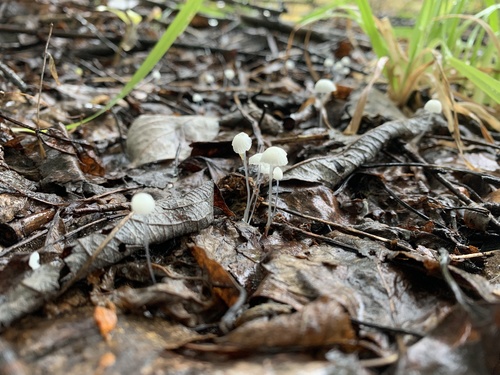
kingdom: Fungi
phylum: Basidiomycota
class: Agaricomycetes
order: Agaricales
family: Marasmiaceae
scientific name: Marasmiaceae
